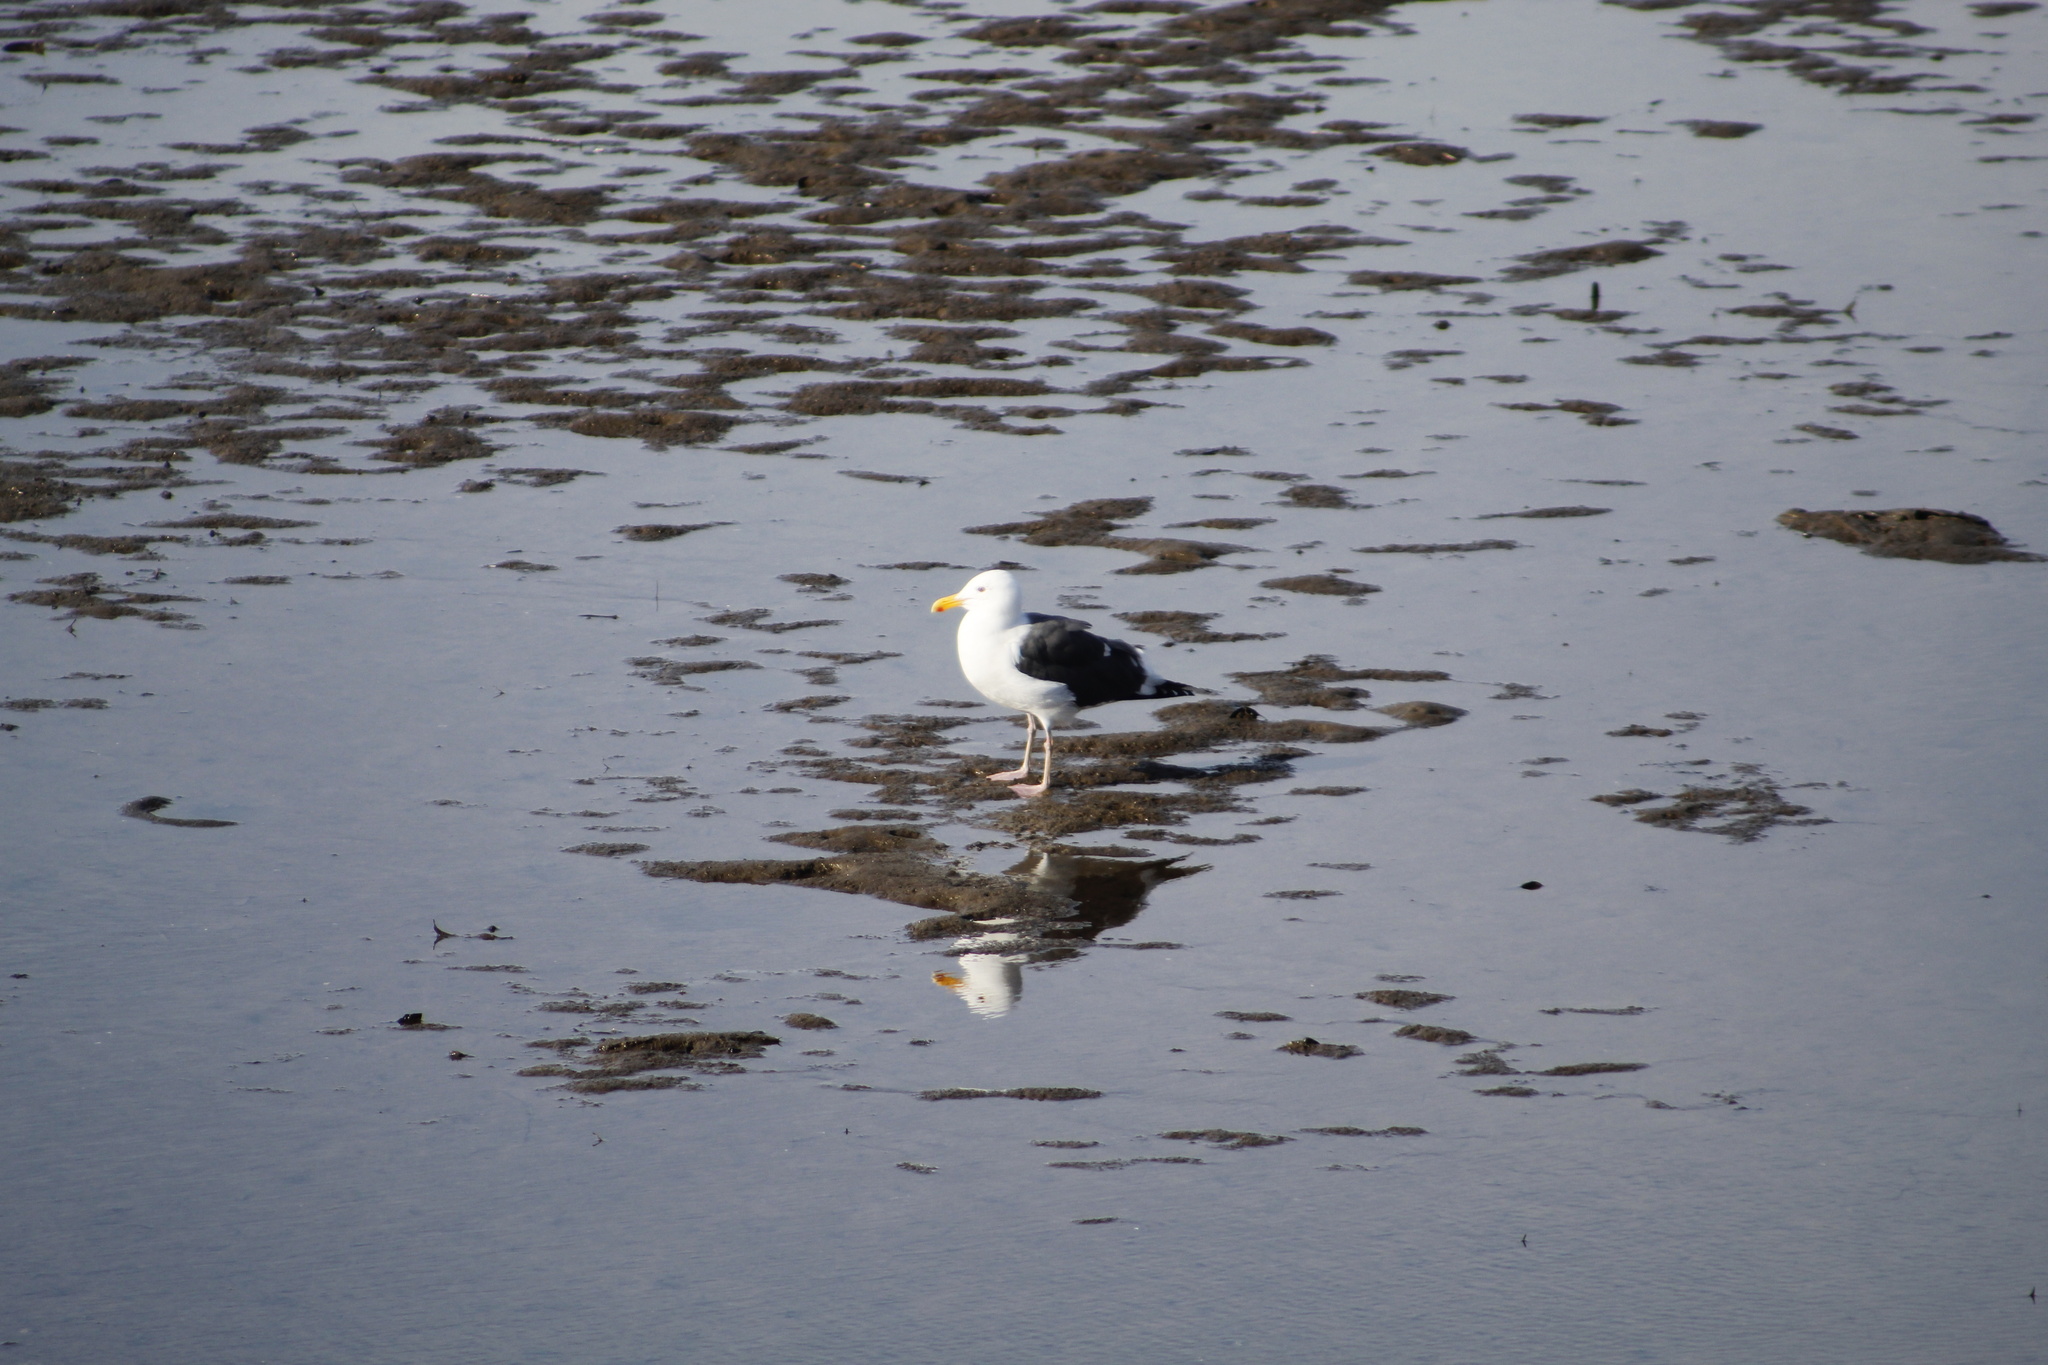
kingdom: Animalia
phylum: Chordata
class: Aves
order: Charadriiformes
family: Laridae
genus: Larus
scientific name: Larus occidentalis
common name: Western gull
